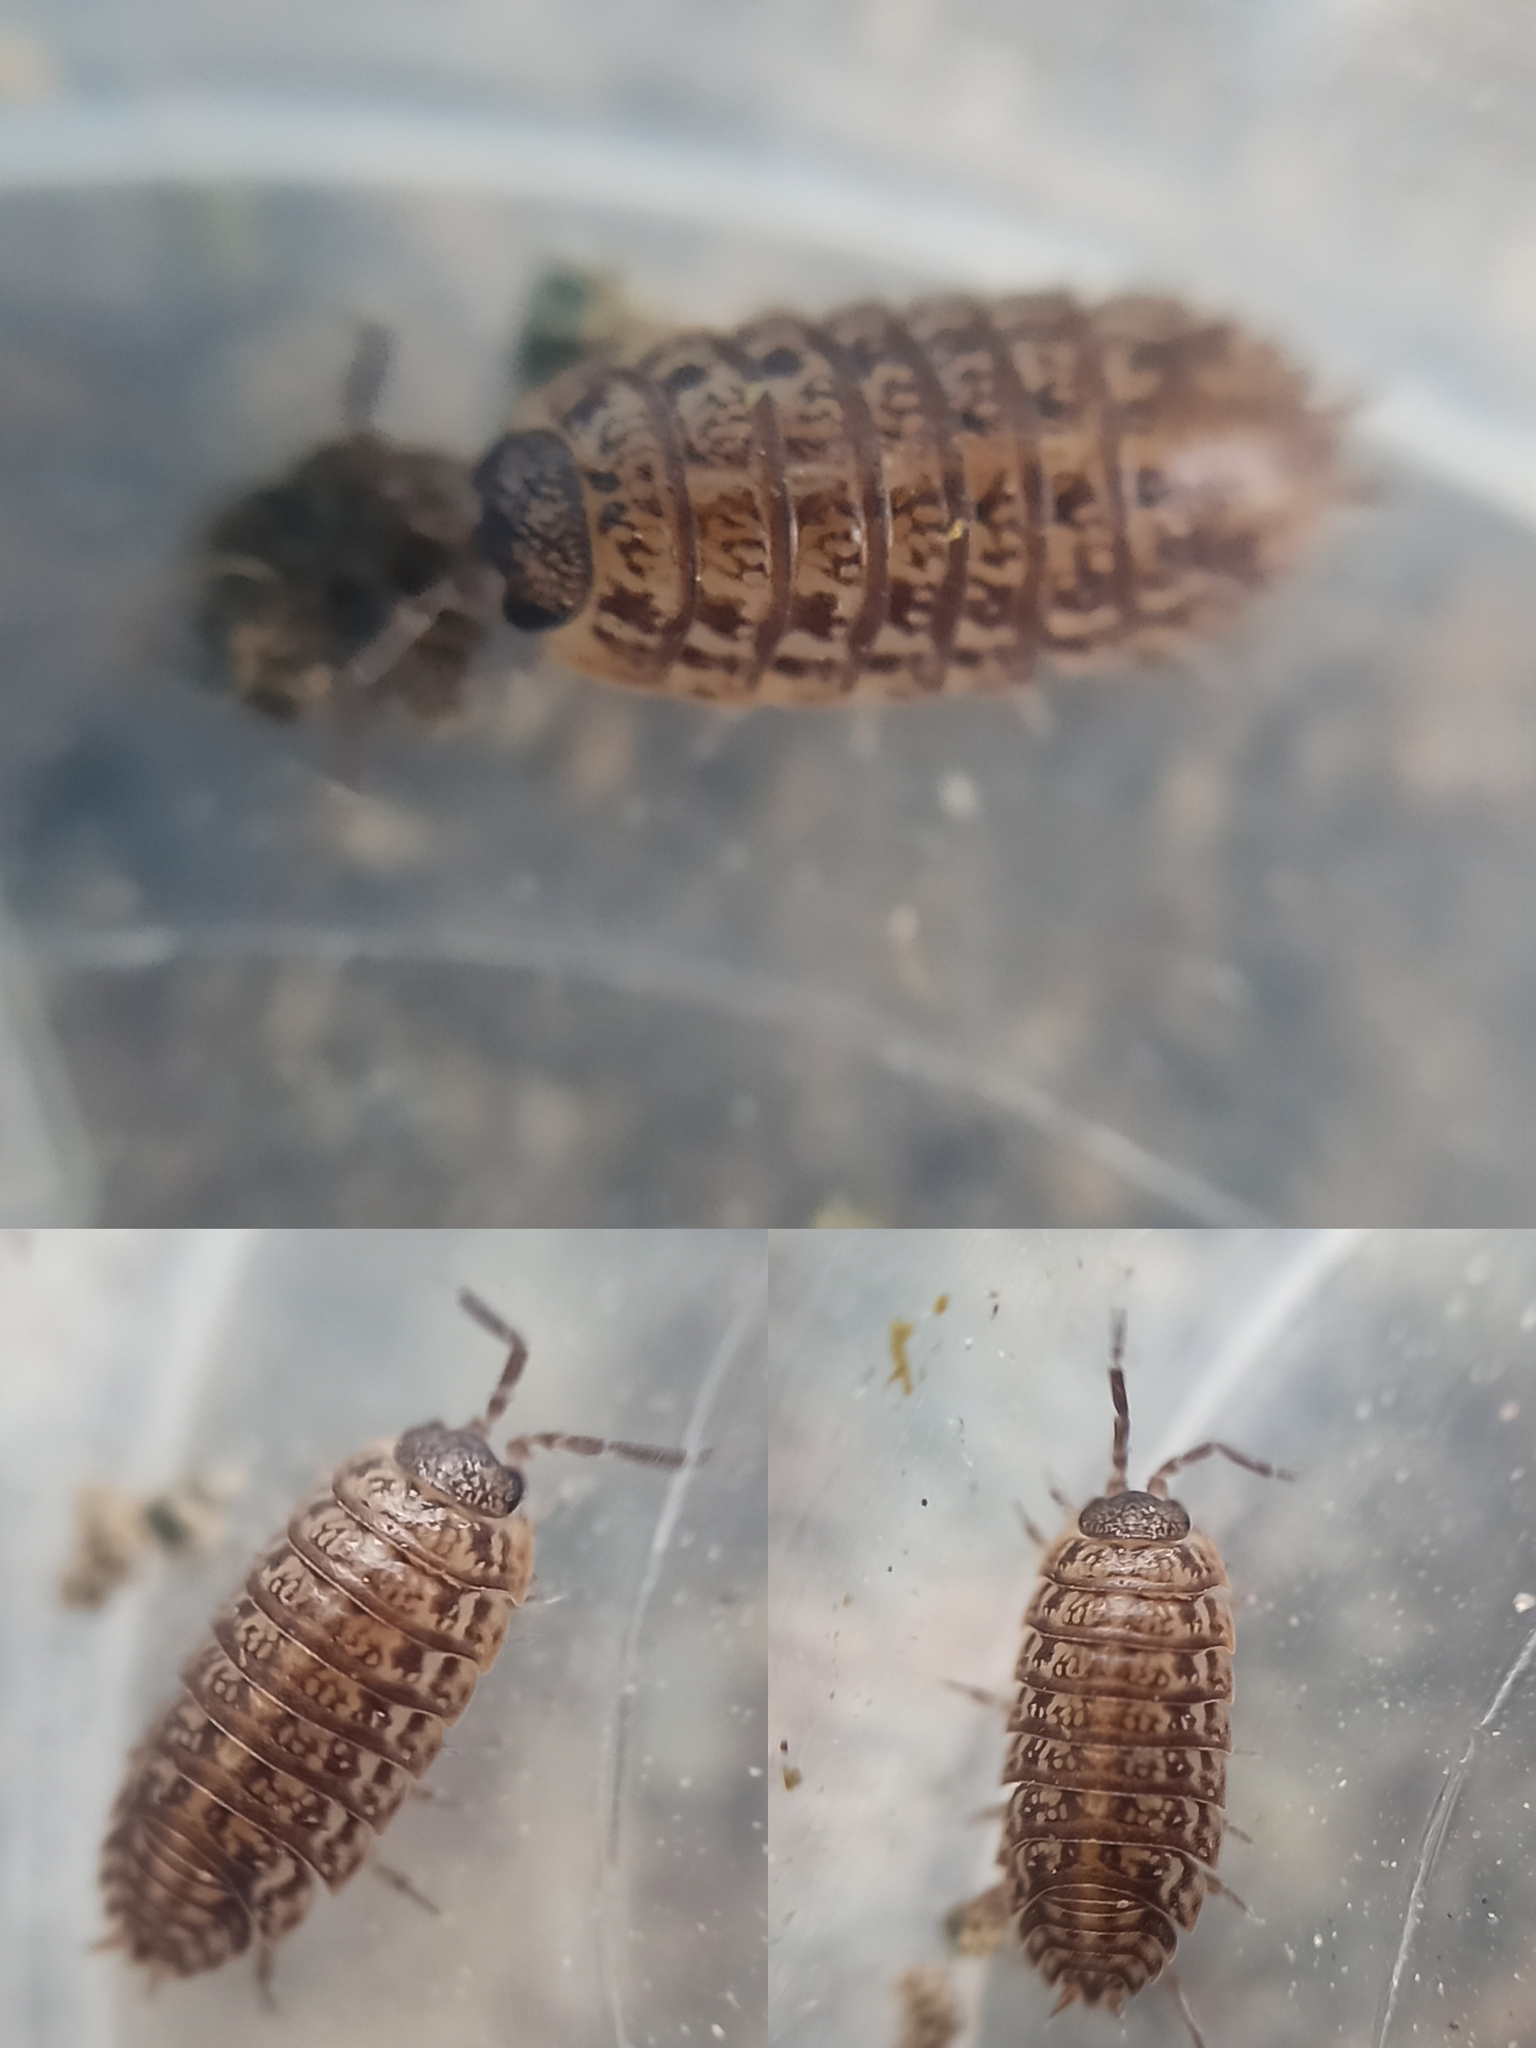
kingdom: Animalia
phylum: Arthropoda
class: Malacostraca
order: Isopoda
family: Trachelipodidae
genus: Trachelipus
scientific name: Trachelipus razzautii
